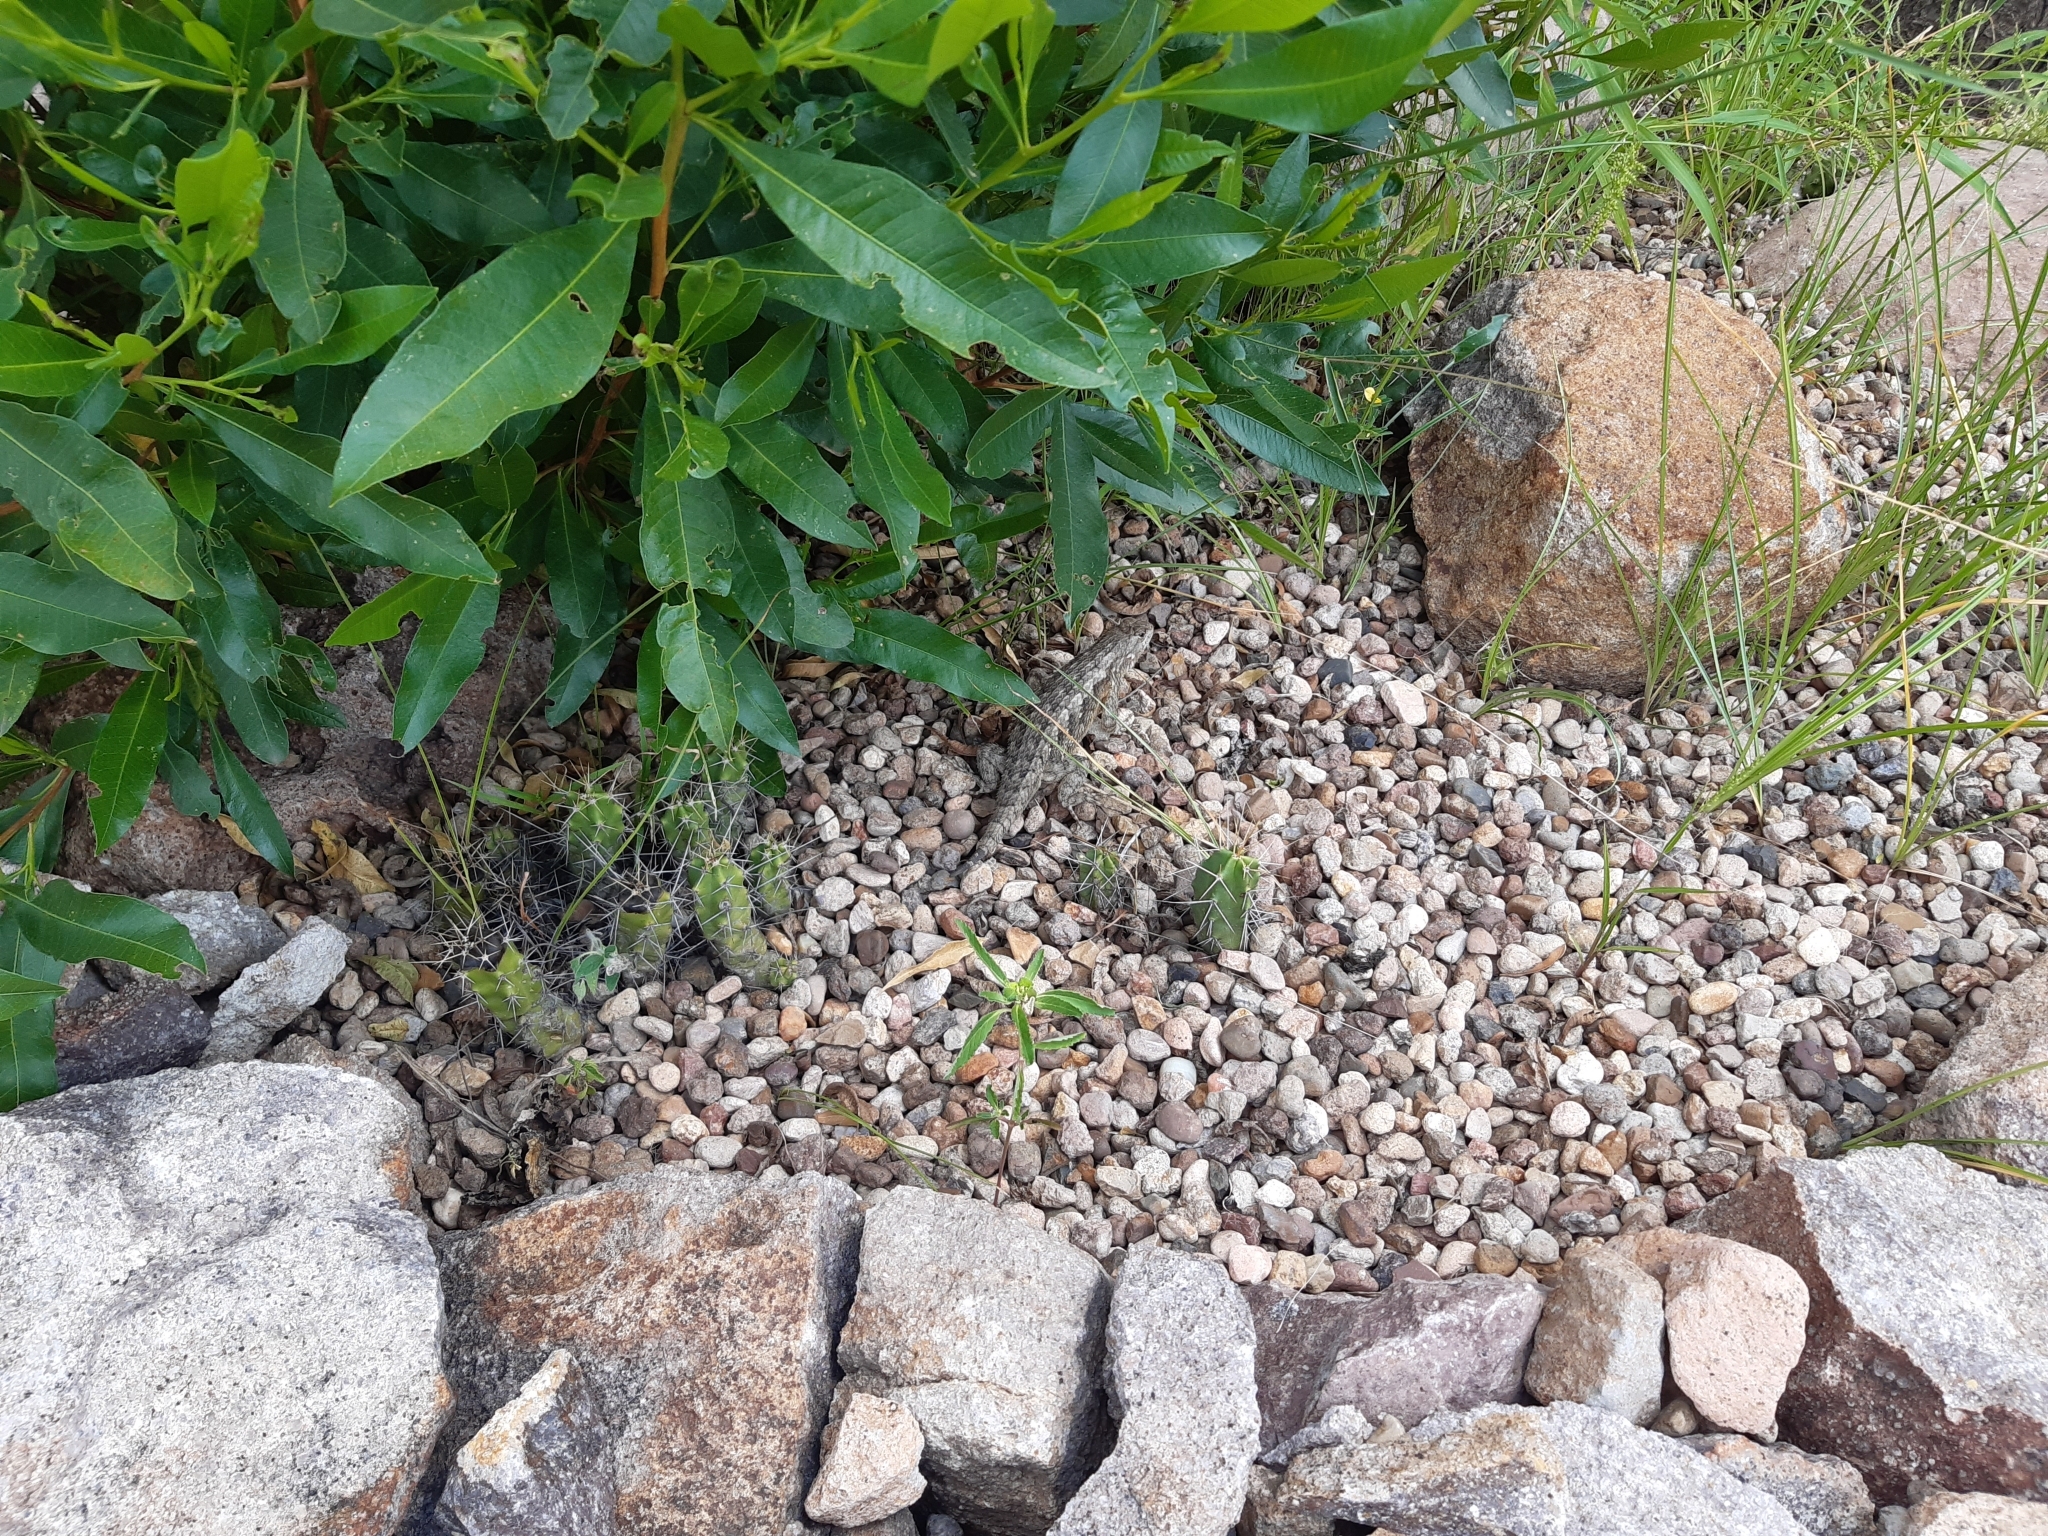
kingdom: Animalia
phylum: Chordata
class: Squamata
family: Phrynosomatidae
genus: Sceloporus
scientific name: Sceloporus spinosus
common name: Blue-spotted spiny lizard [caeruleopunctatus]
